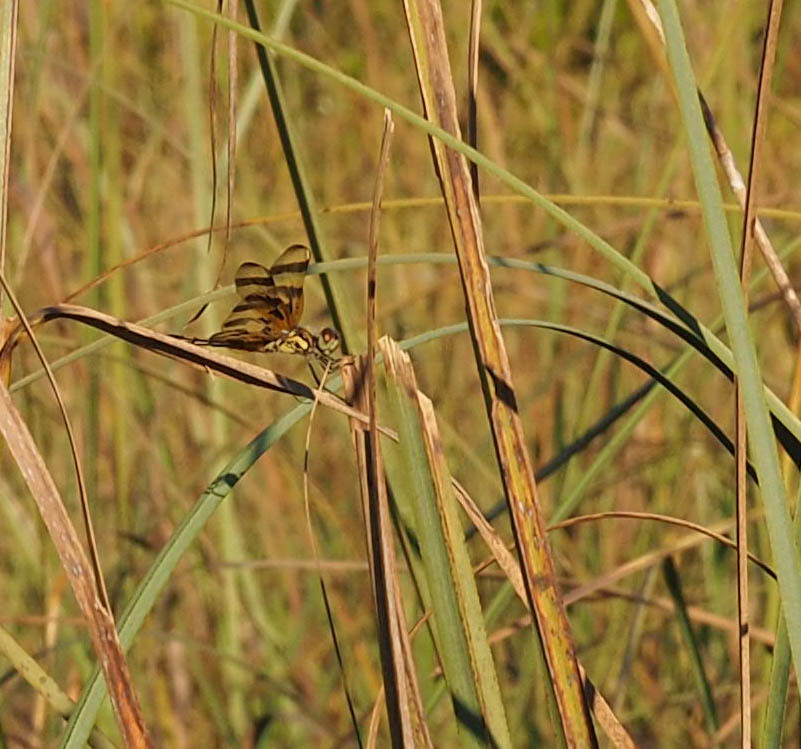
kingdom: Animalia
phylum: Arthropoda
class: Insecta
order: Odonata
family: Libellulidae
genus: Celithemis
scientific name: Celithemis eponina
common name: Halloween pennant
